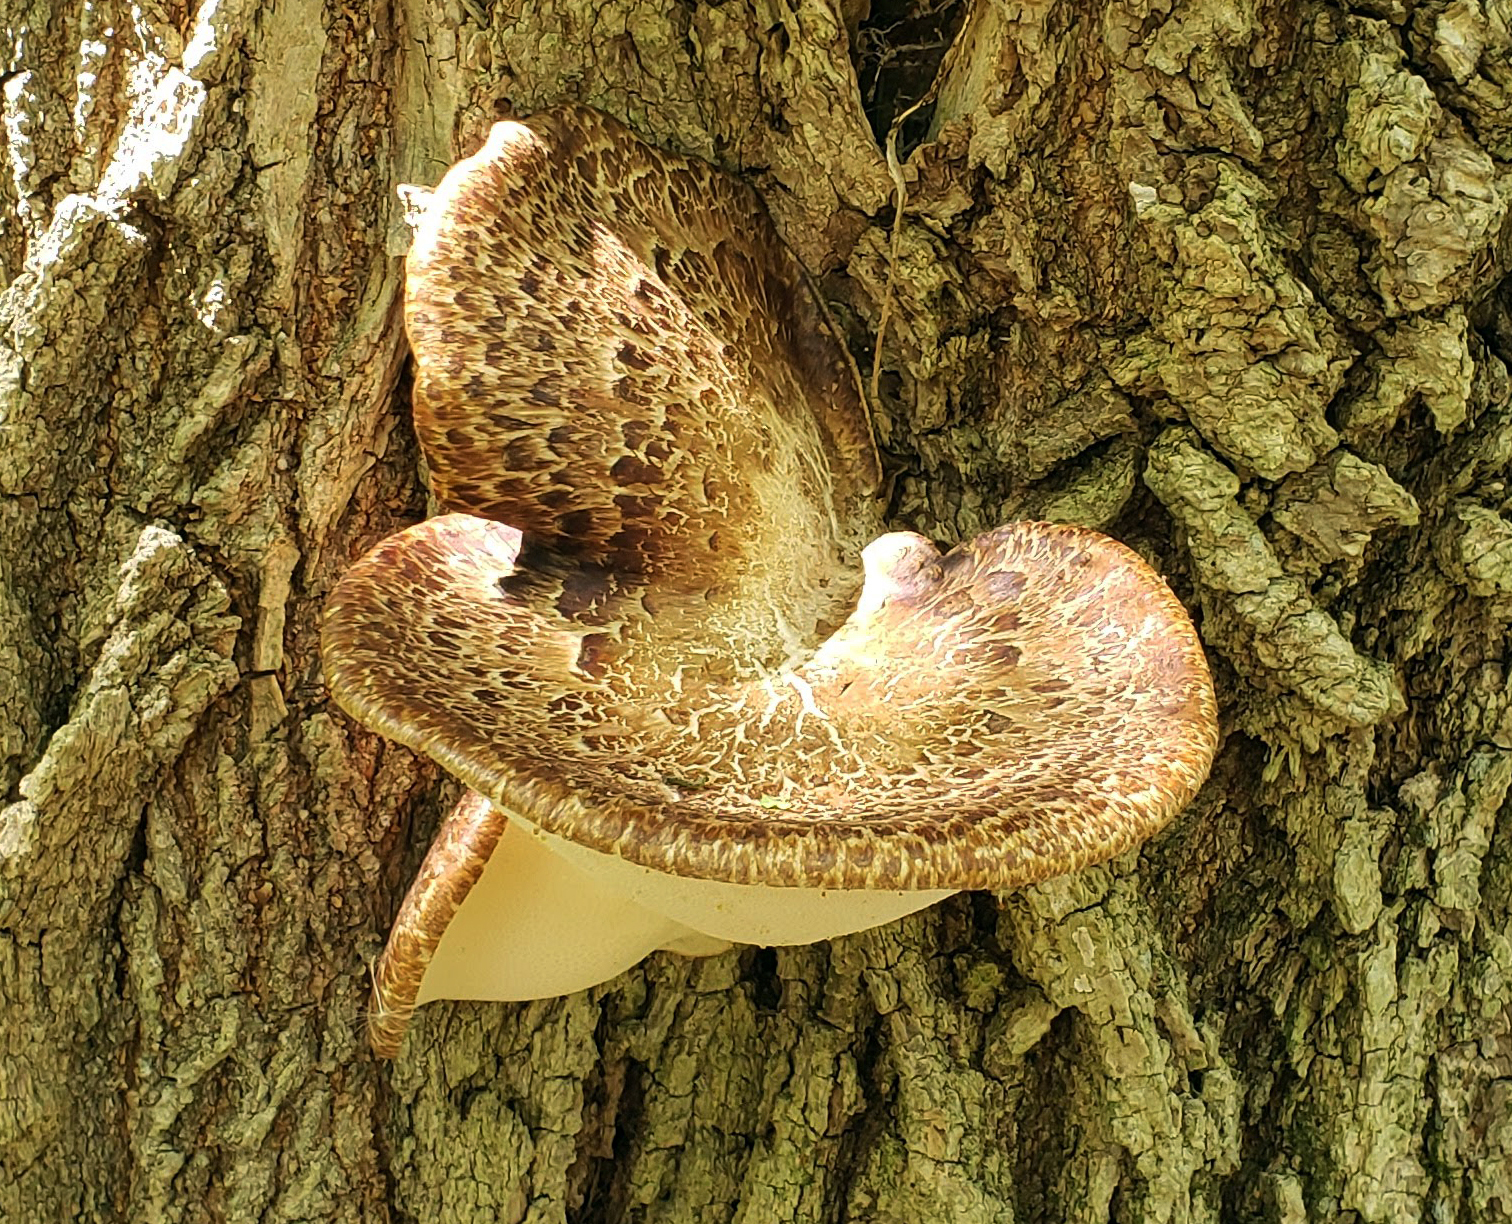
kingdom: Fungi
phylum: Basidiomycota
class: Agaricomycetes
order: Polyporales
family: Polyporaceae
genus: Cerioporus
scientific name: Cerioporus squamosus
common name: Dryad's saddle
